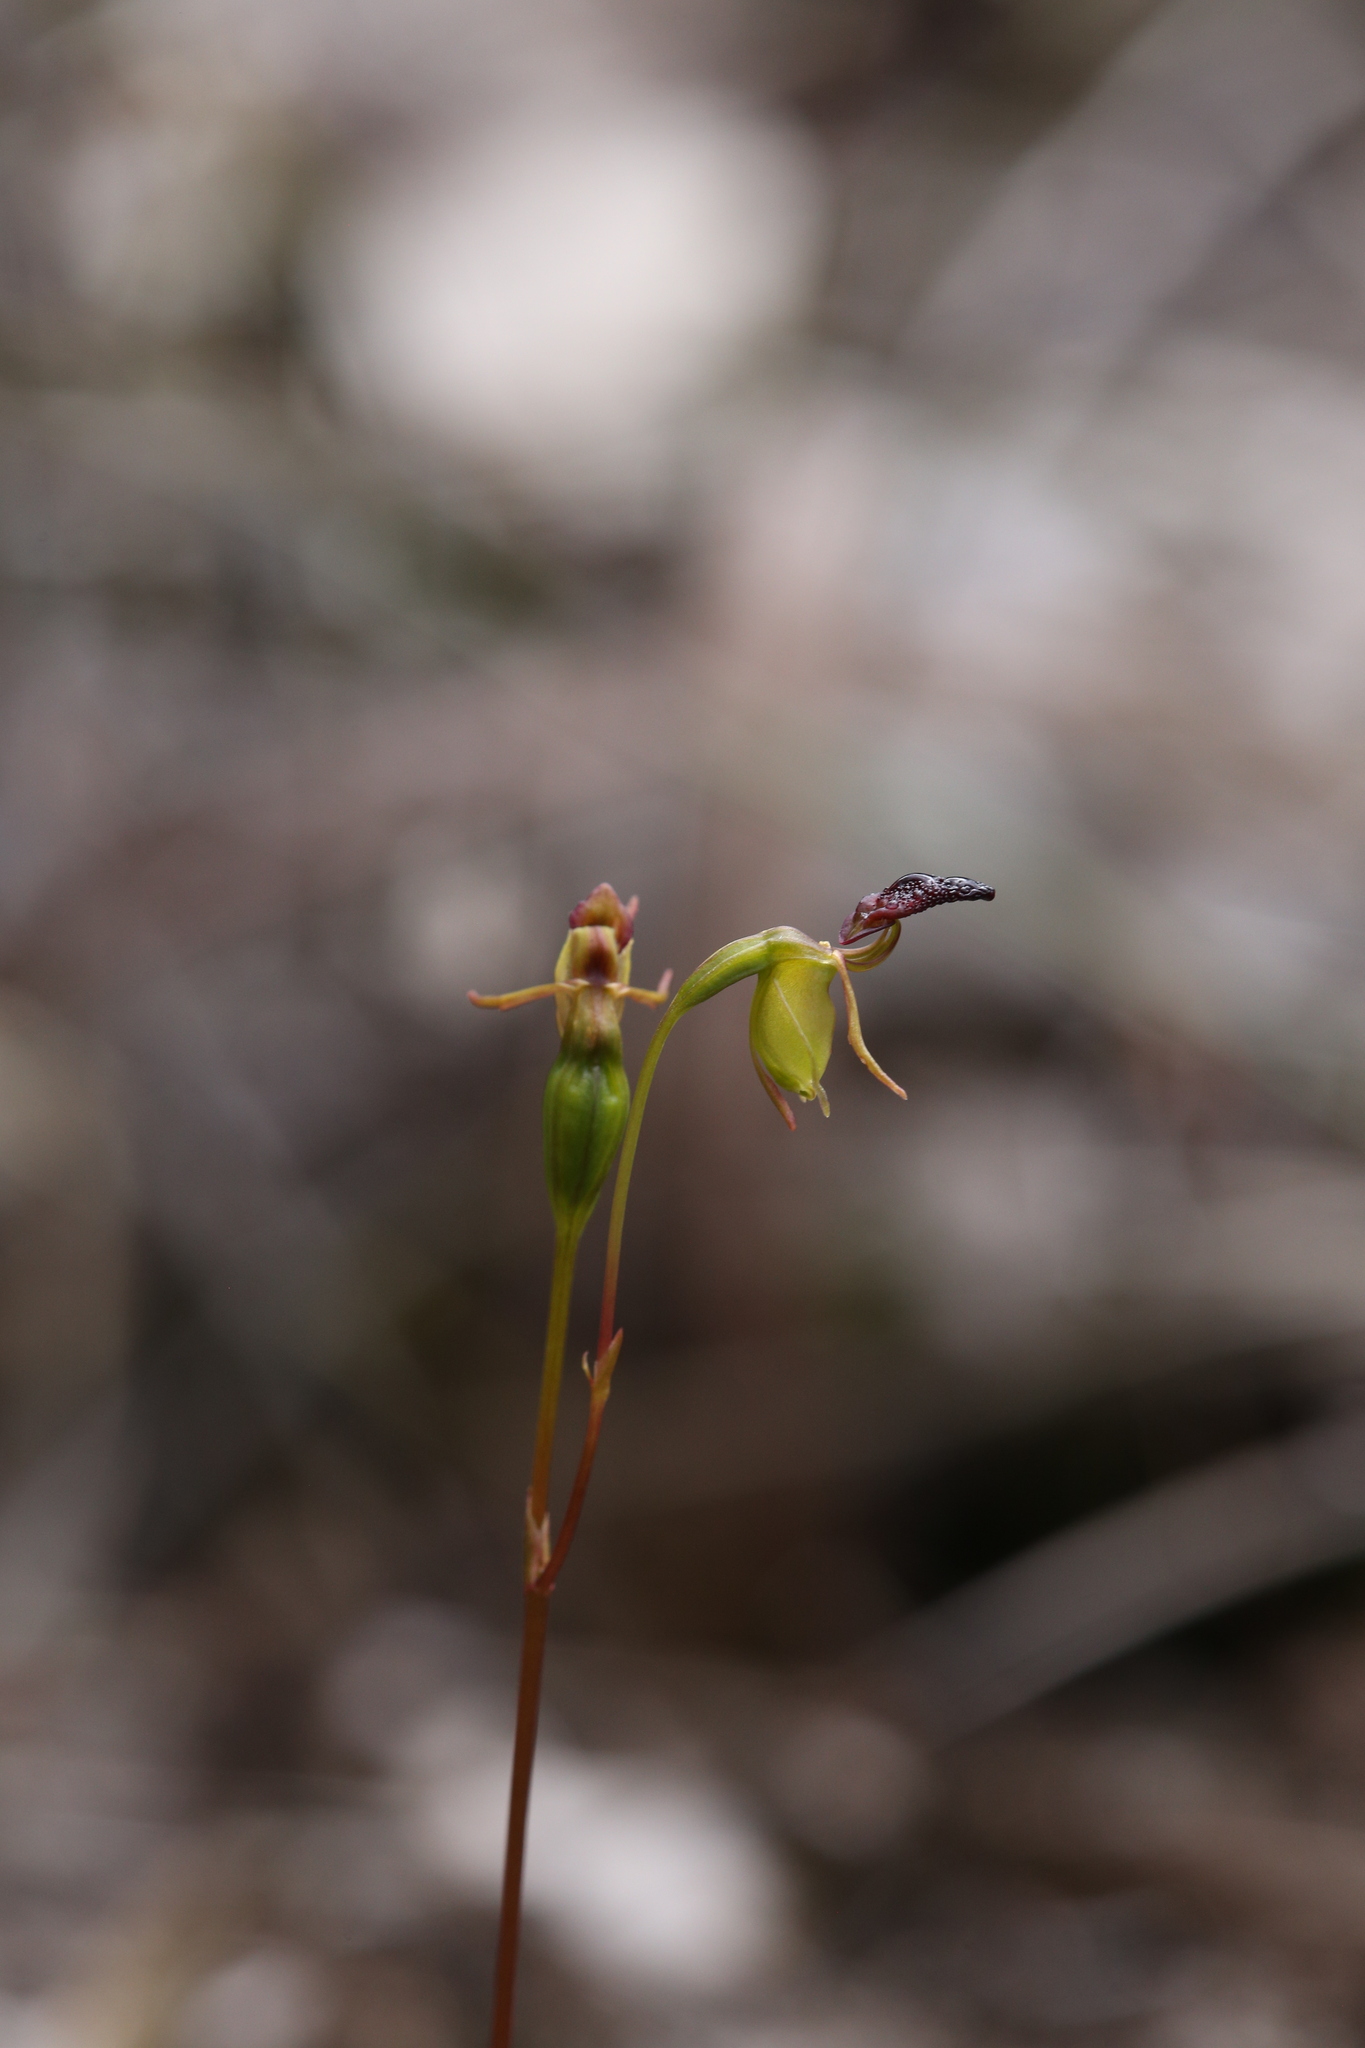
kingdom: Plantae
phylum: Tracheophyta
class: Liliopsida
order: Asparagales
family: Orchidaceae
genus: Caleana
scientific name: Caleana nigrita
